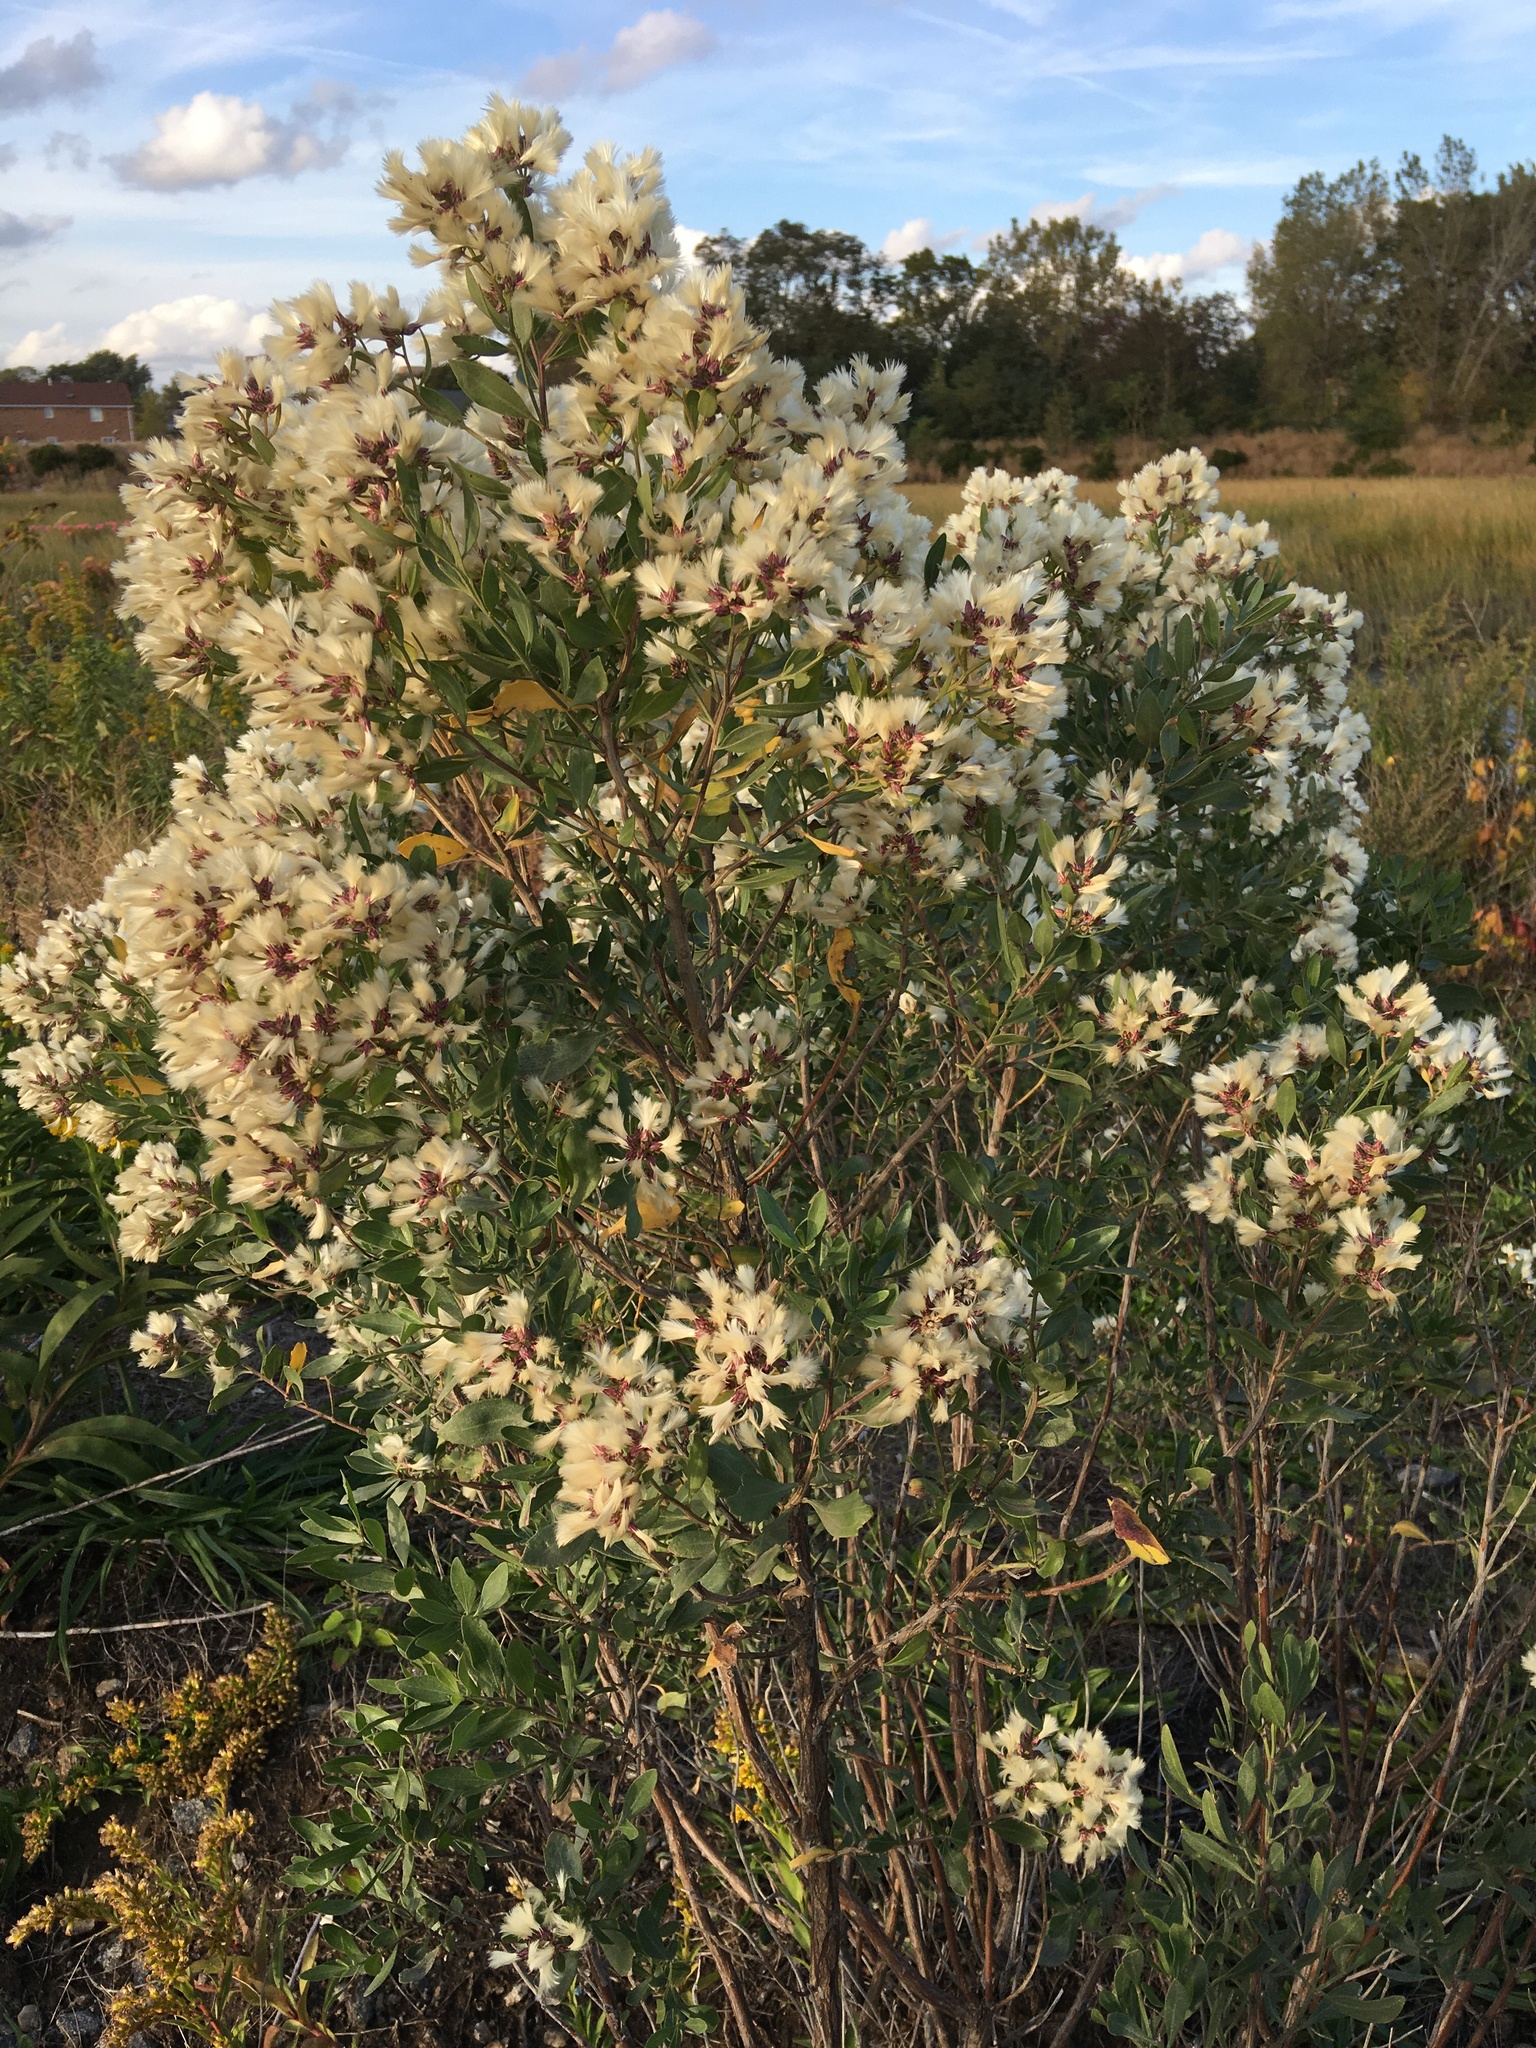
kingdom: Plantae
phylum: Tracheophyta
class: Magnoliopsida
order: Asterales
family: Asteraceae
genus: Baccharis
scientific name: Baccharis halimifolia
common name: Eastern baccharis
